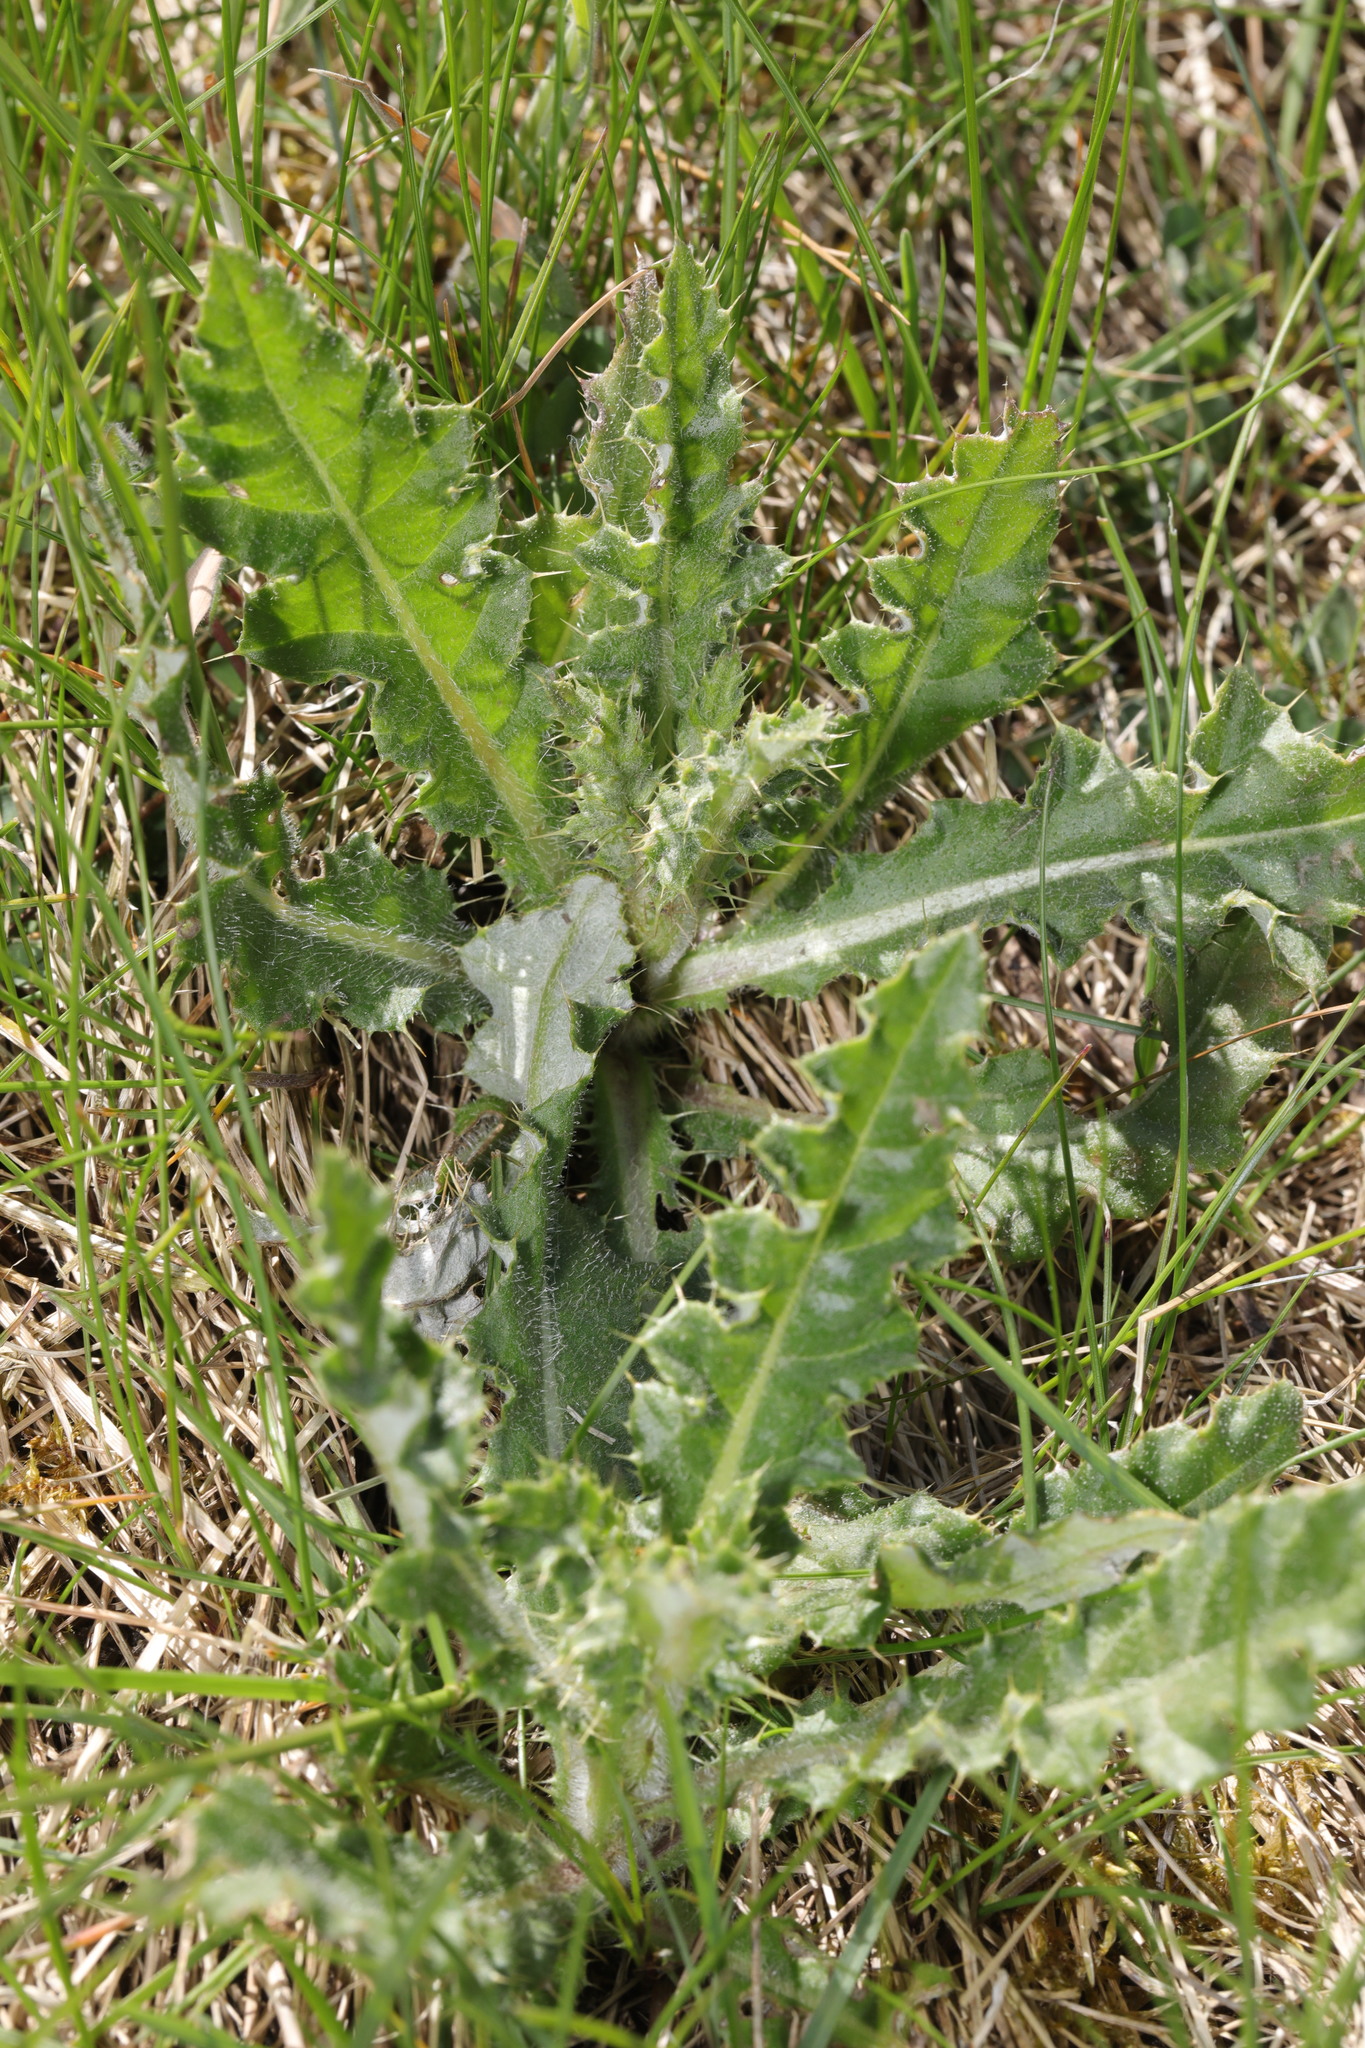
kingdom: Plantae
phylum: Tracheophyta
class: Magnoliopsida
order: Asterales
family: Asteraceae
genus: Cirsium
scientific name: Cirsium arvense
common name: Creeping thistle
